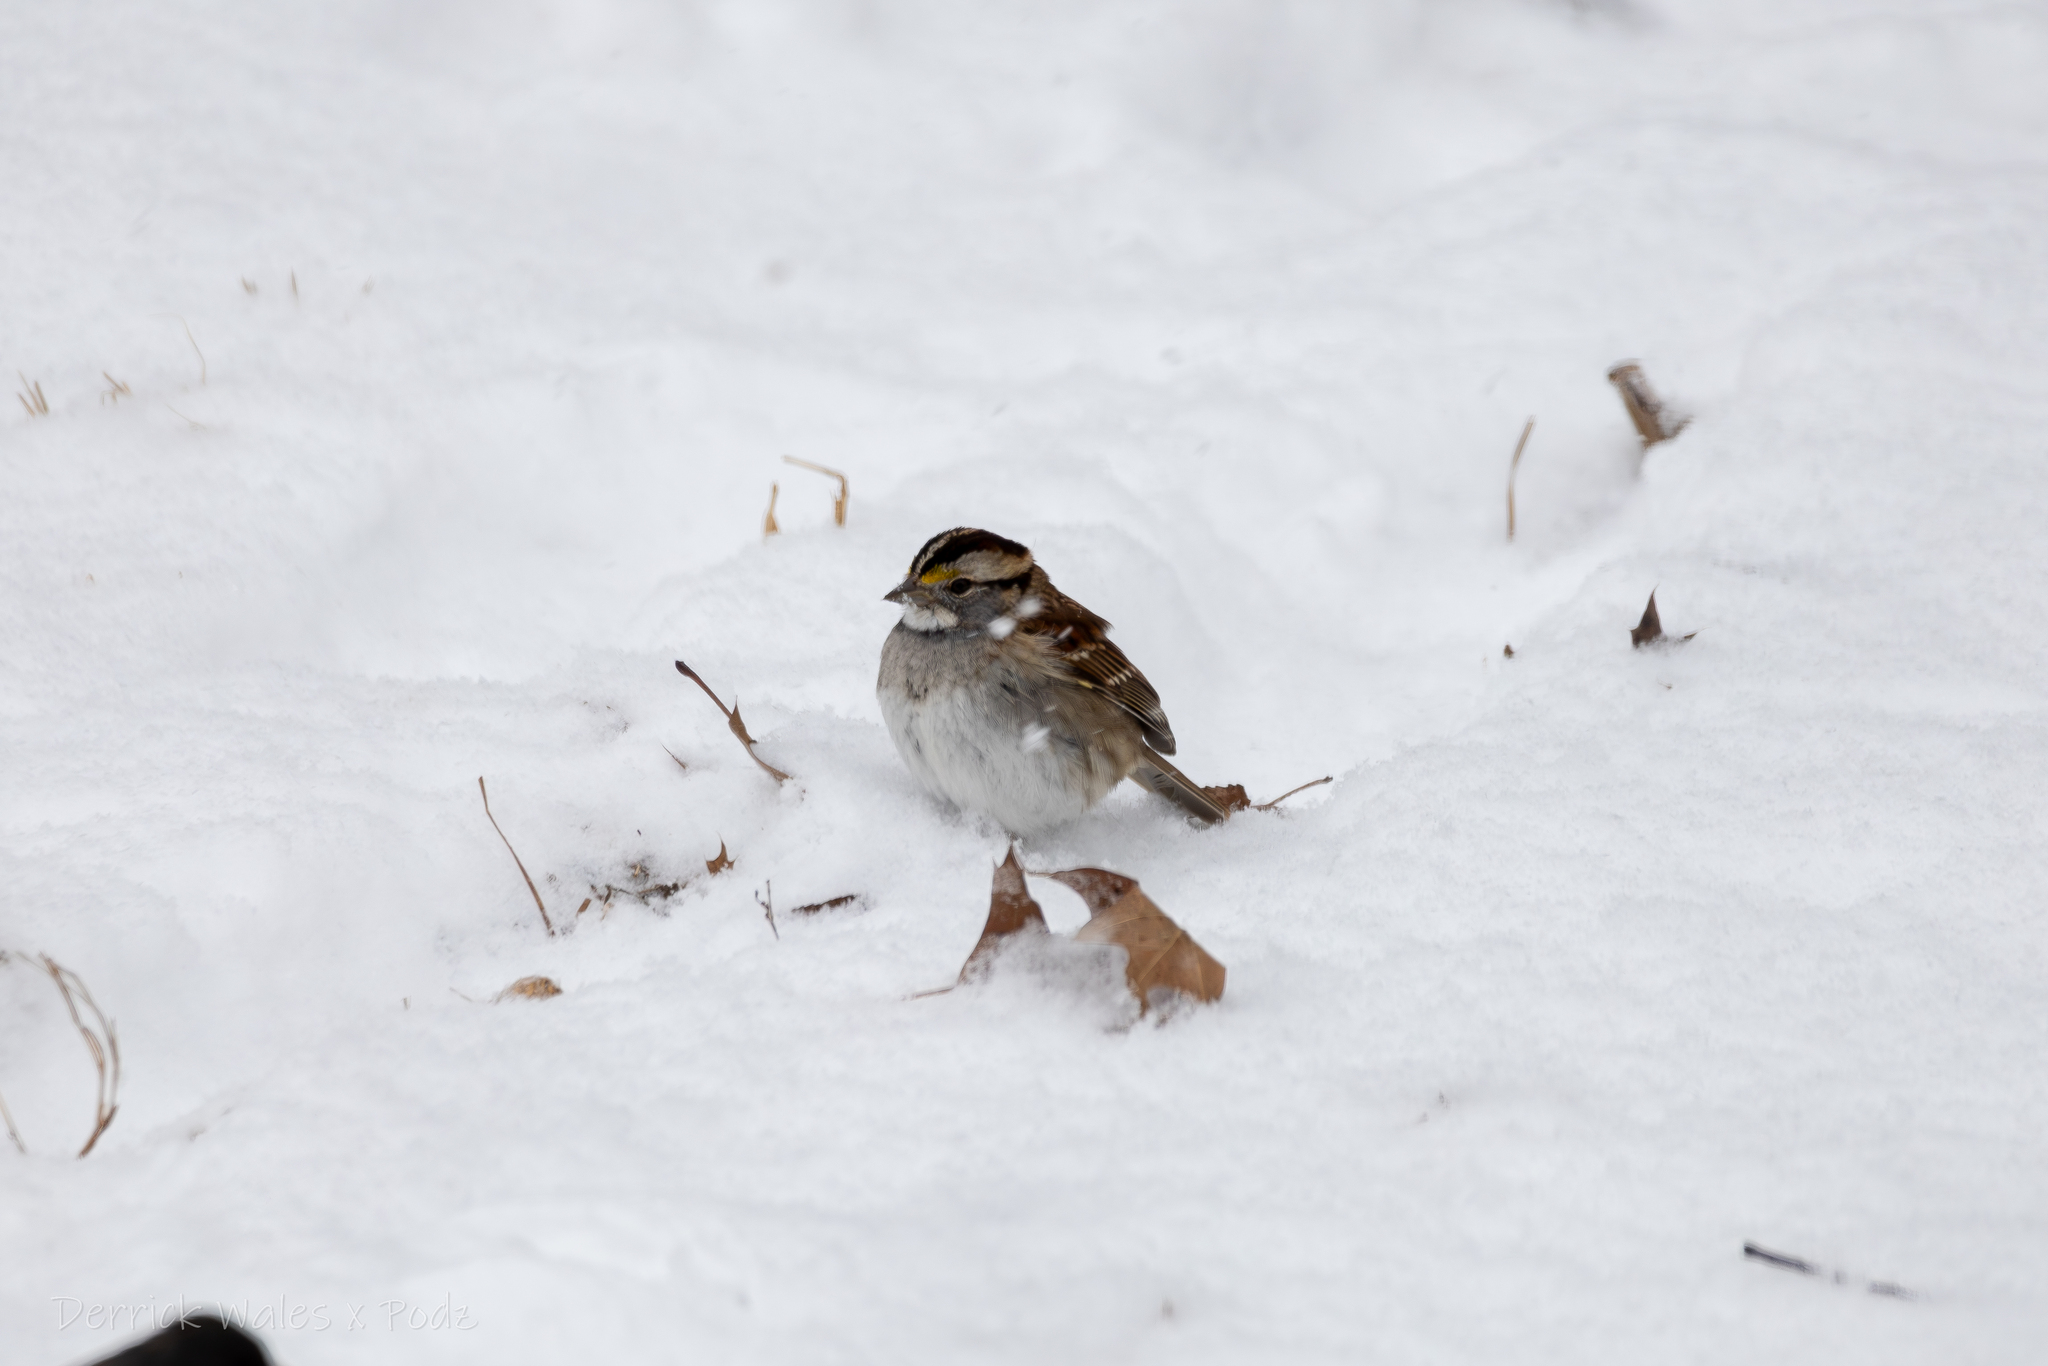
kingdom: Animalia
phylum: Chordata
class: Aves
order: Passeriformes
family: Passerellidae
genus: Zonotrichia
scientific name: Zonotrichia albicollis
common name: White-throated sparrow
